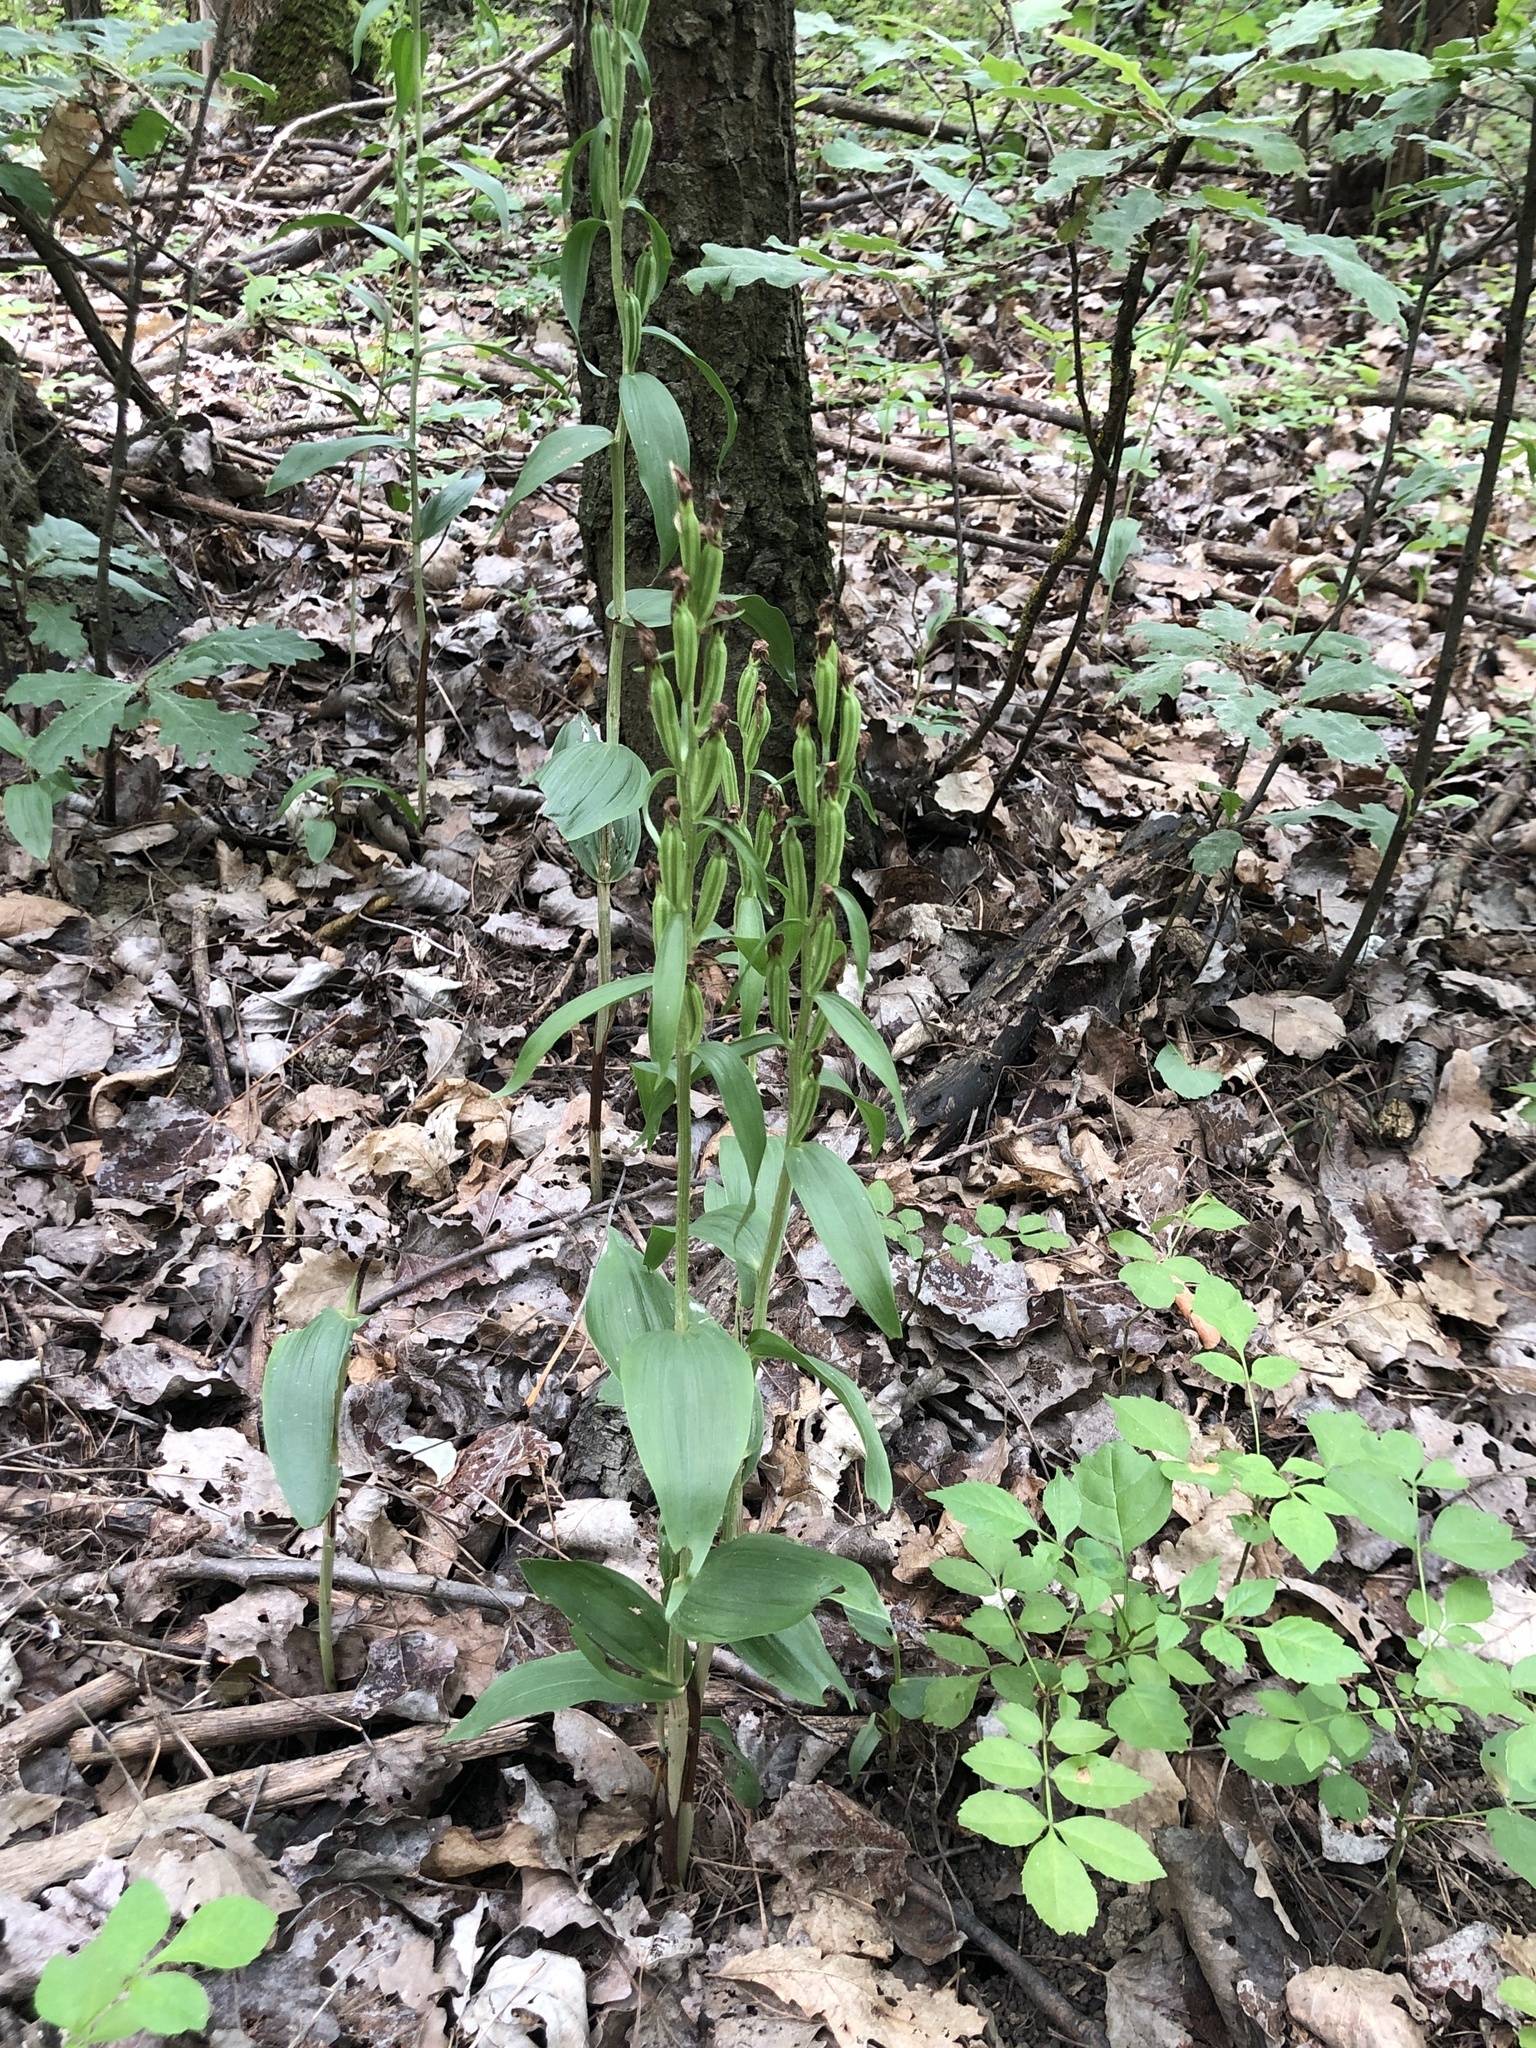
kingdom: Plantae
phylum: Tracheophyta
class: Liliopsida
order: Asparagales
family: Orchidaceae
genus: Cephalanthera
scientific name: Cephalanthera damasonium
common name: White helleborine
